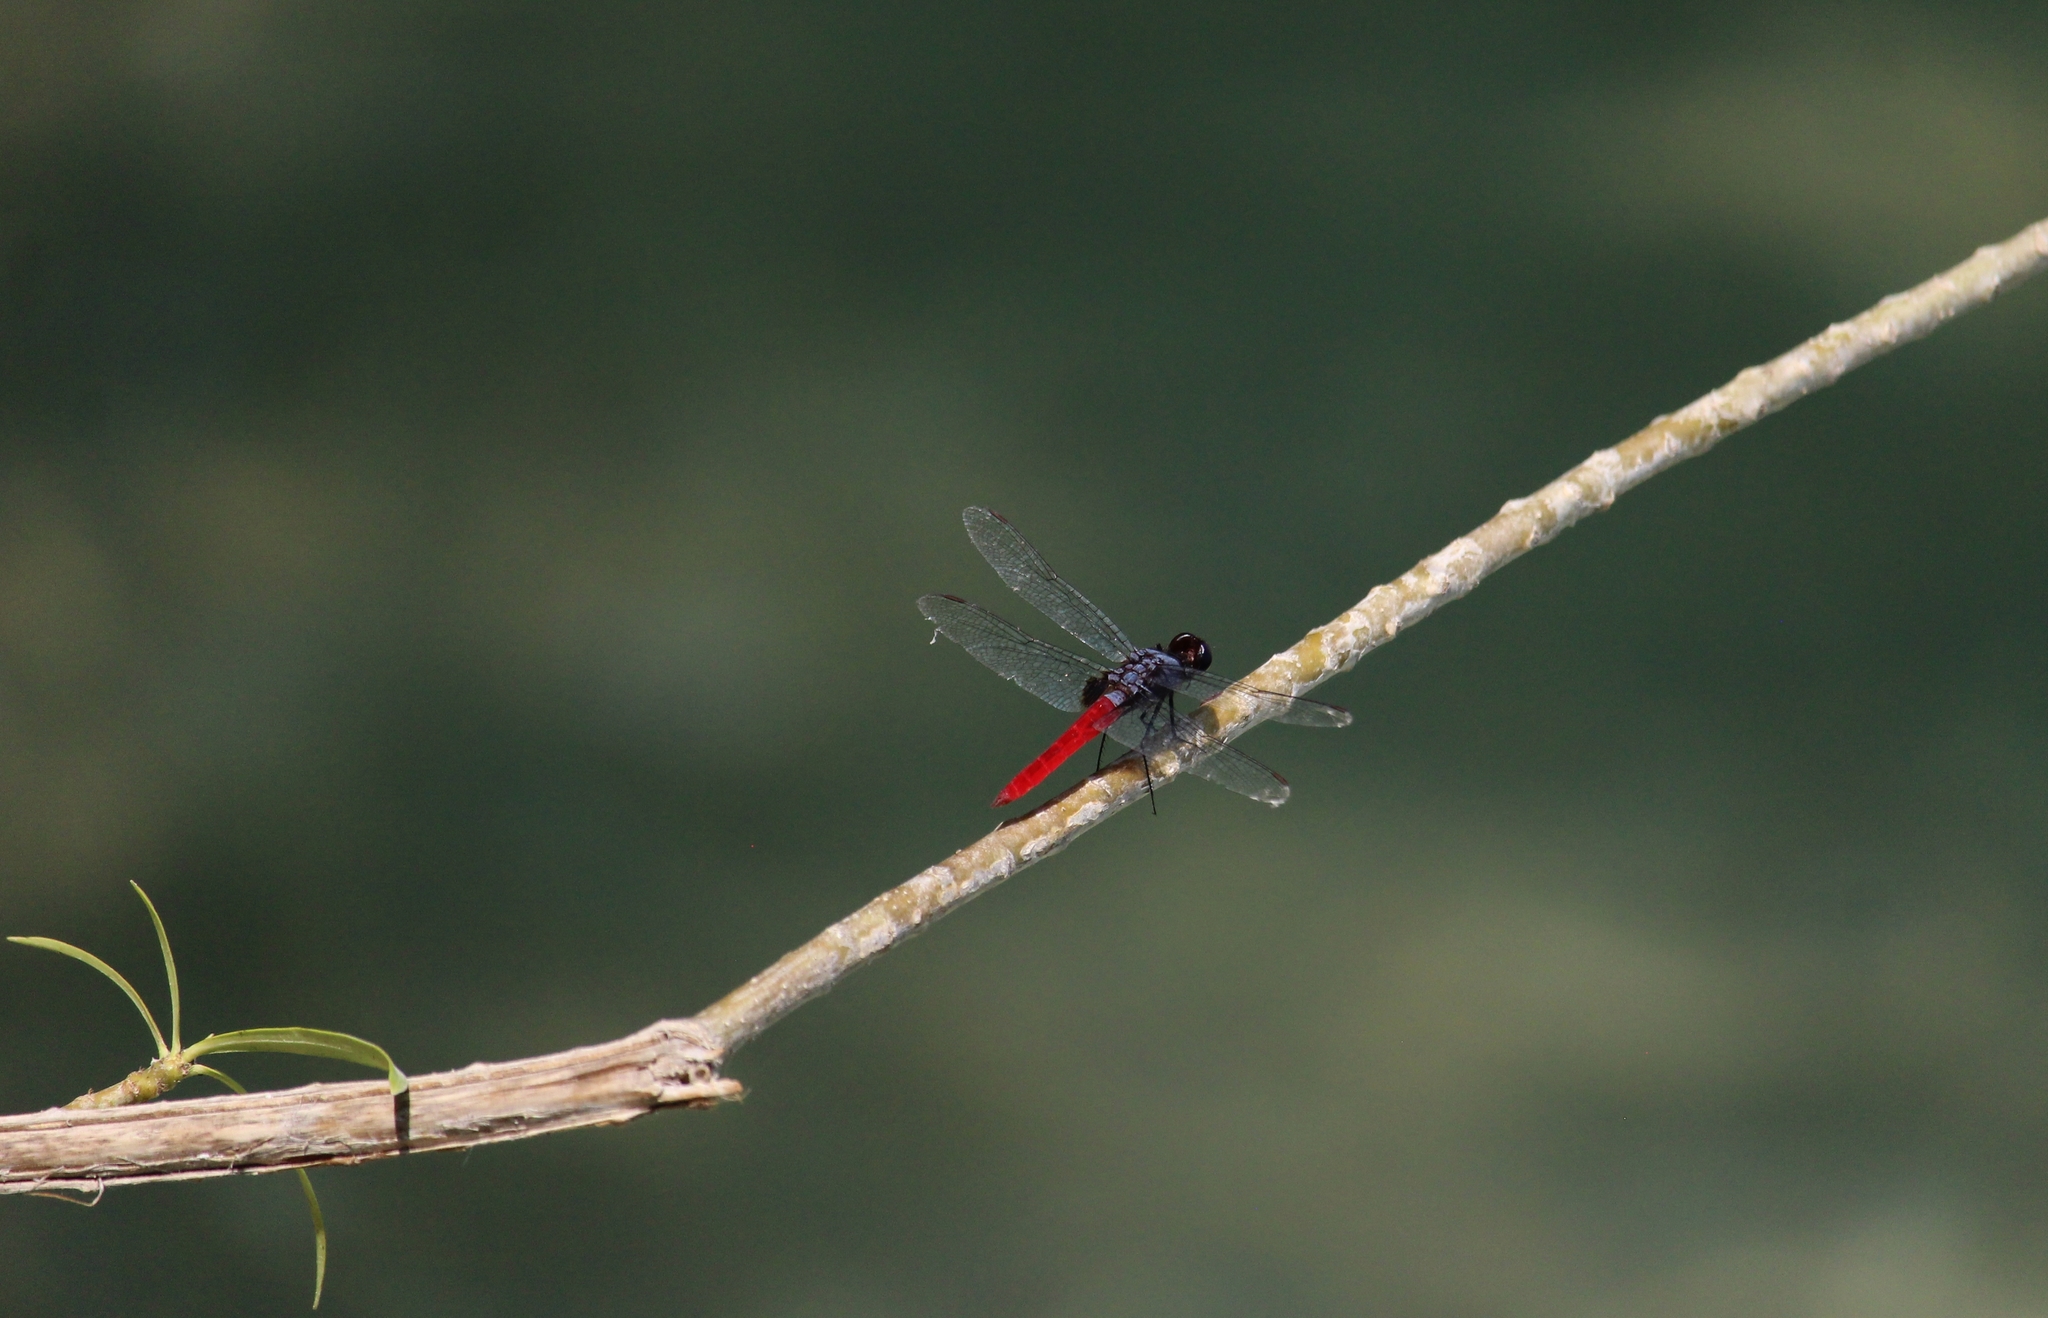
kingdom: Animalia
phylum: Arthropoda
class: Insecta
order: Odonata
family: Libellulidae
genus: Planiplax
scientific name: Planiplax sanguiniventris
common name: Mexican scarlet-tail
